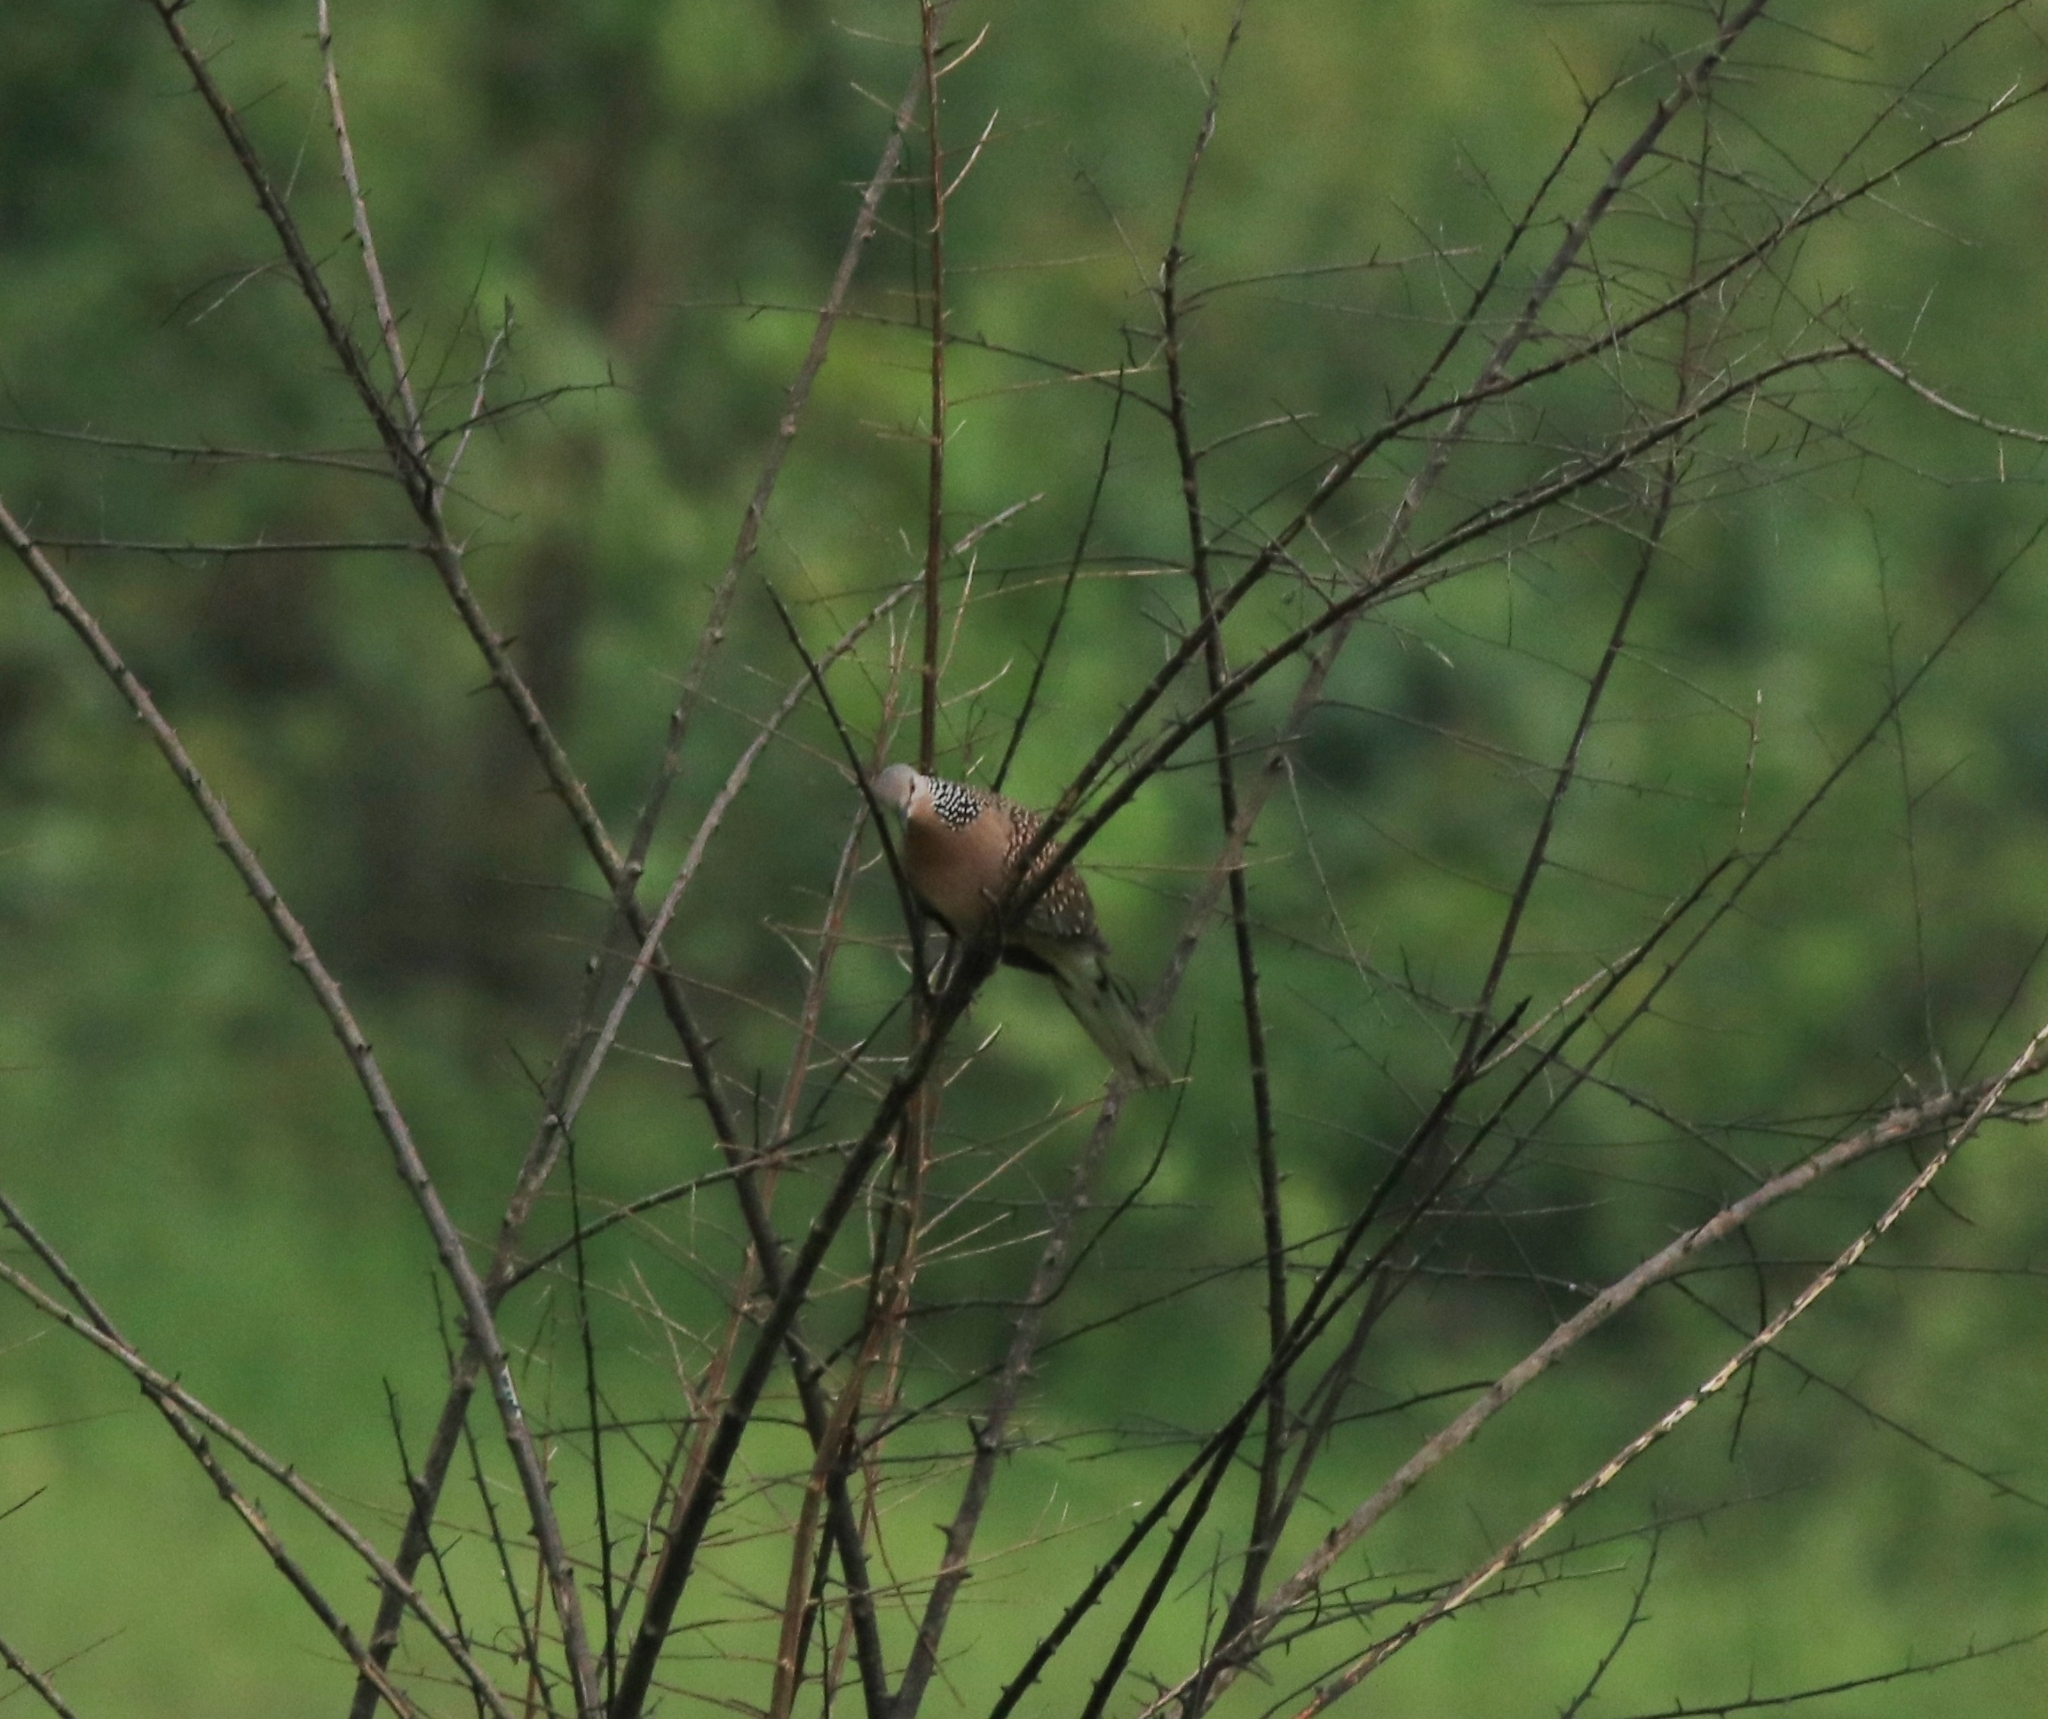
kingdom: Animalia
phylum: Chordata
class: Aves
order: Columbiformes
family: Columbidae
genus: Spilopelia
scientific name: Spilopelia chinensis
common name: Spotted dove
